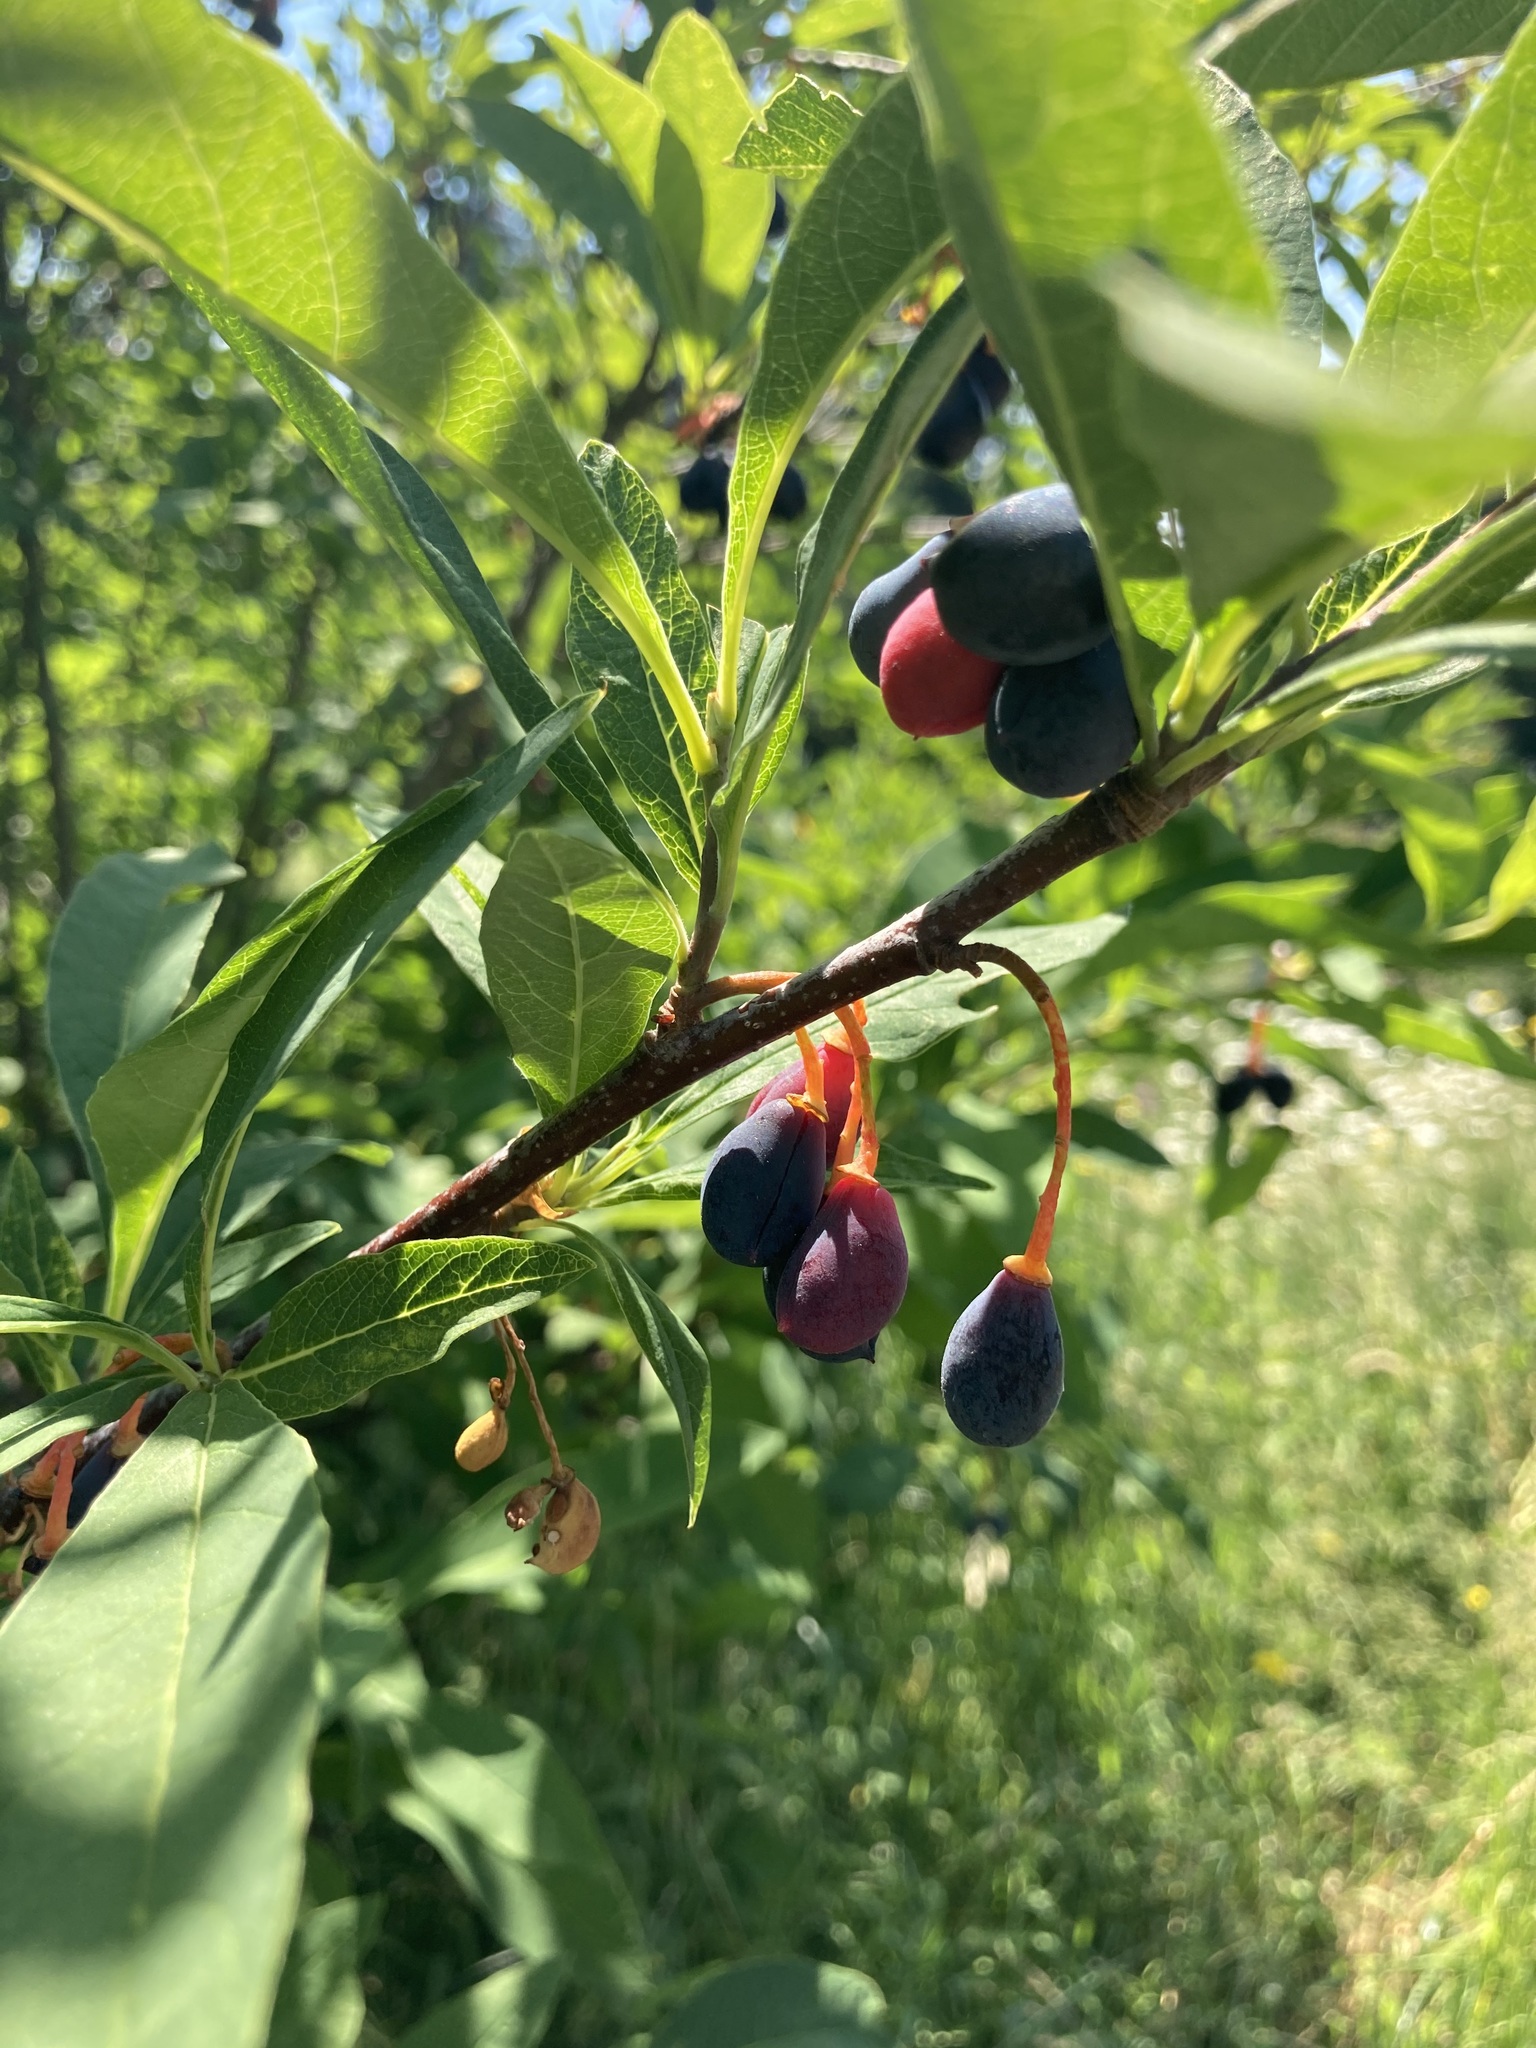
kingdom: Plantae
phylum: Tracheophyta
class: Magnoliopsida
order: Rosales
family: Rosaceae
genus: Oemleria
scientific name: Oemleria cerasiformis
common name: Osoberry
